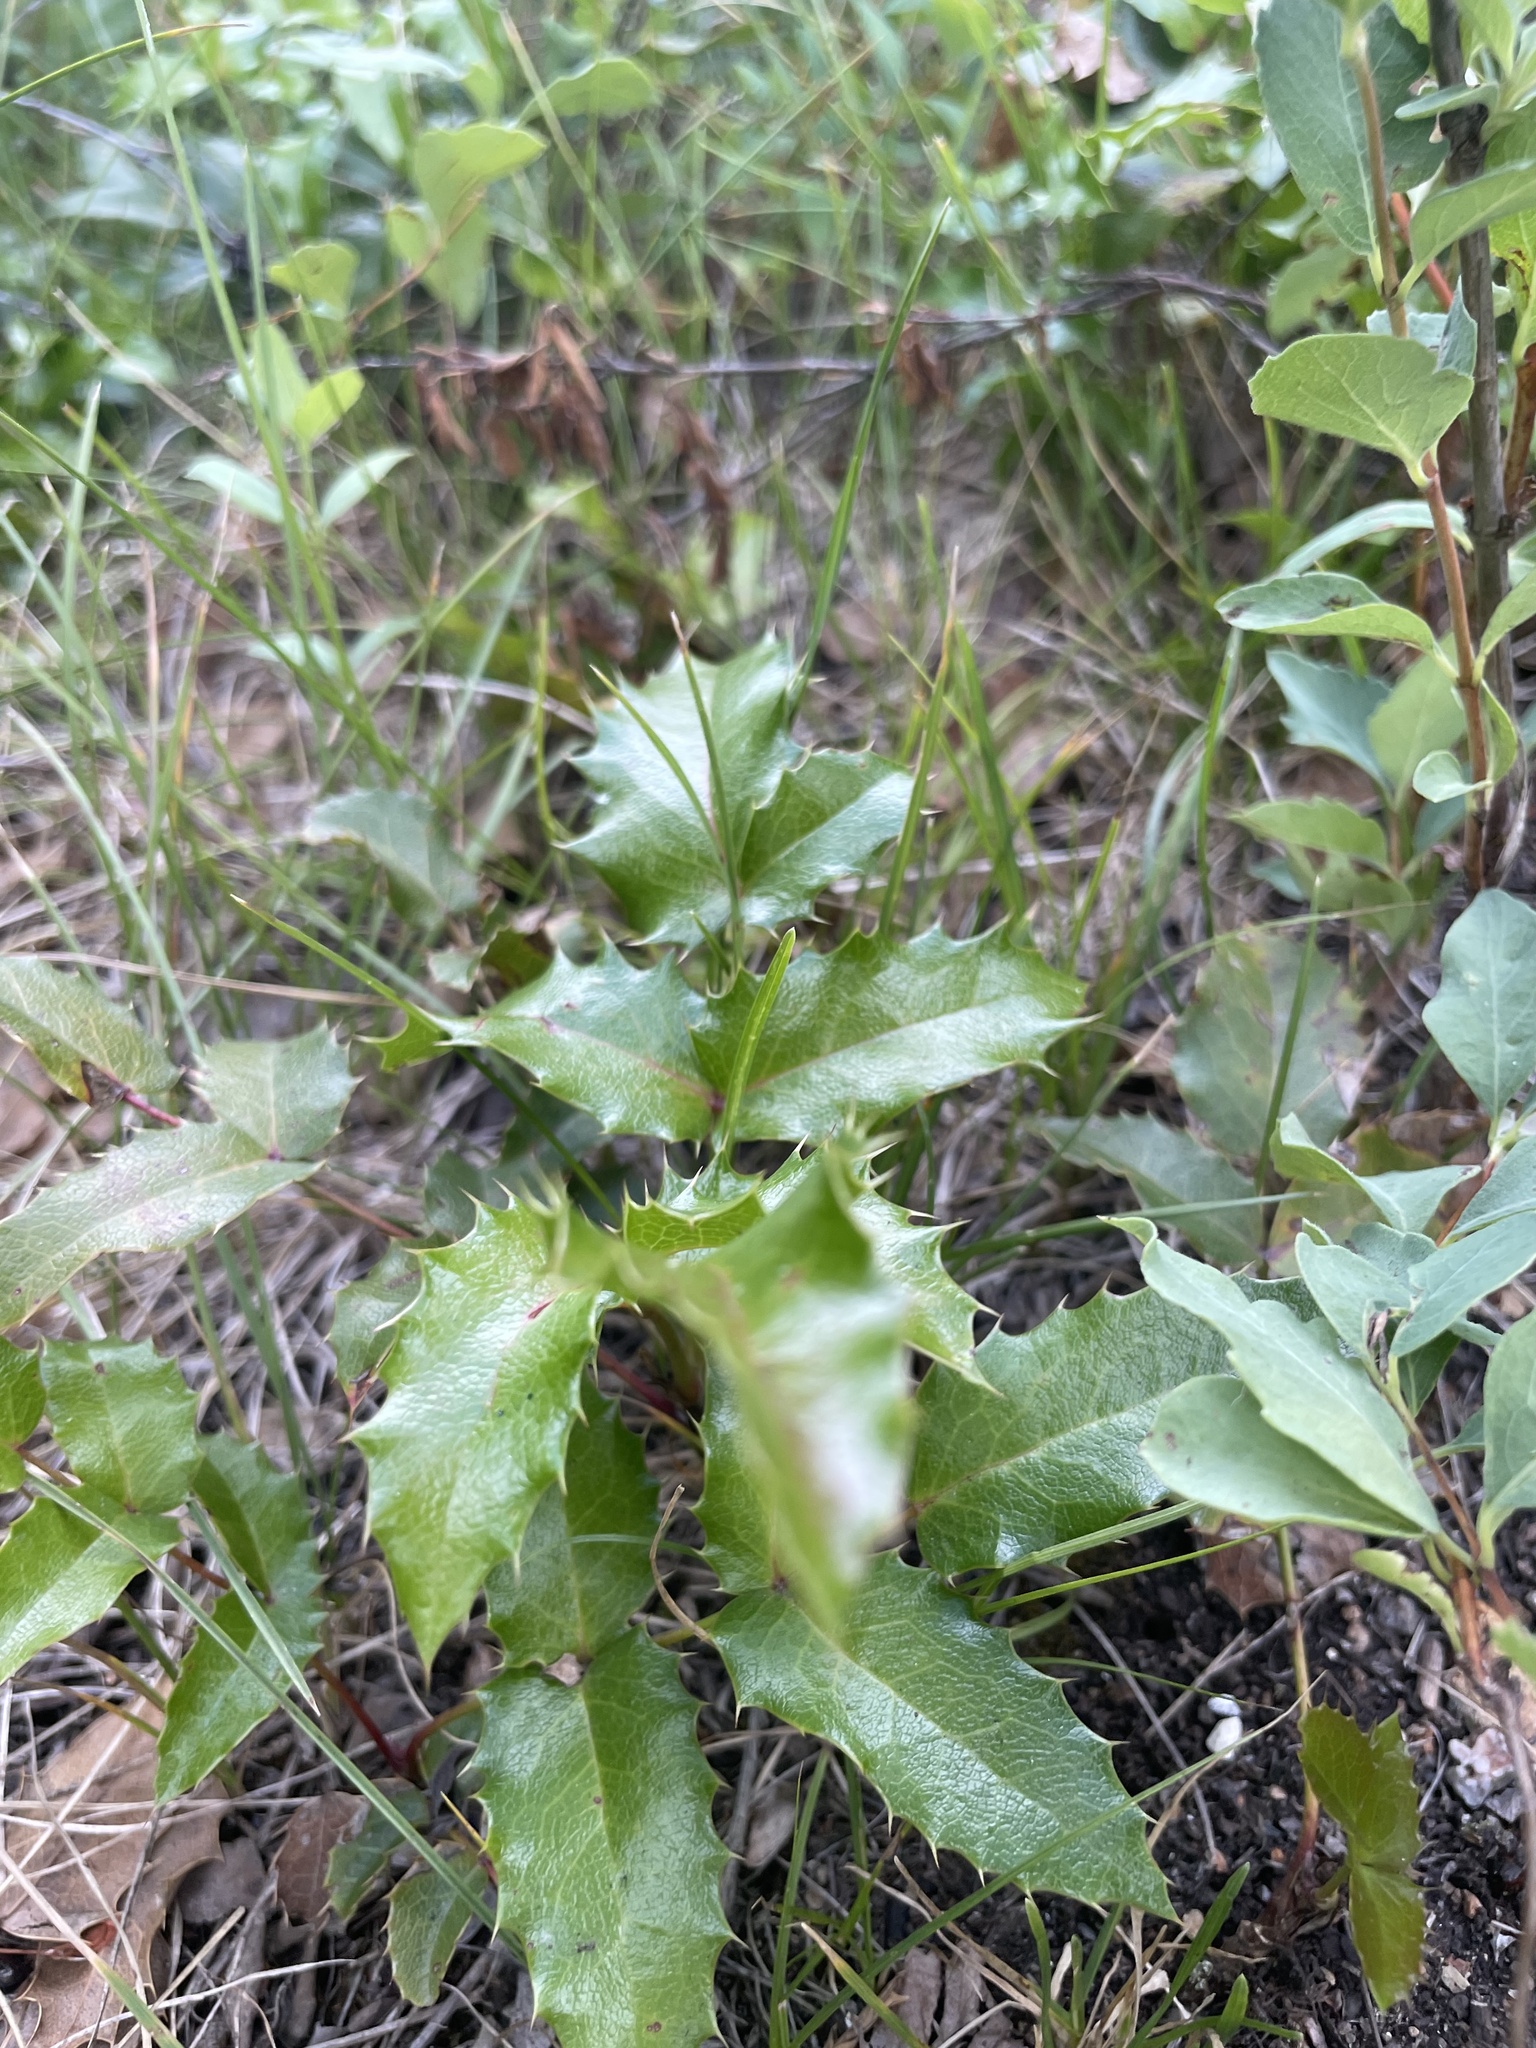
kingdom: Plantae
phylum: Tracheophyta
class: Magnoliopsida
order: Ranunculales
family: Berberidaceae
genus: Mahonia
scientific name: Mahonia aquifolium
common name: Oregon-grape
